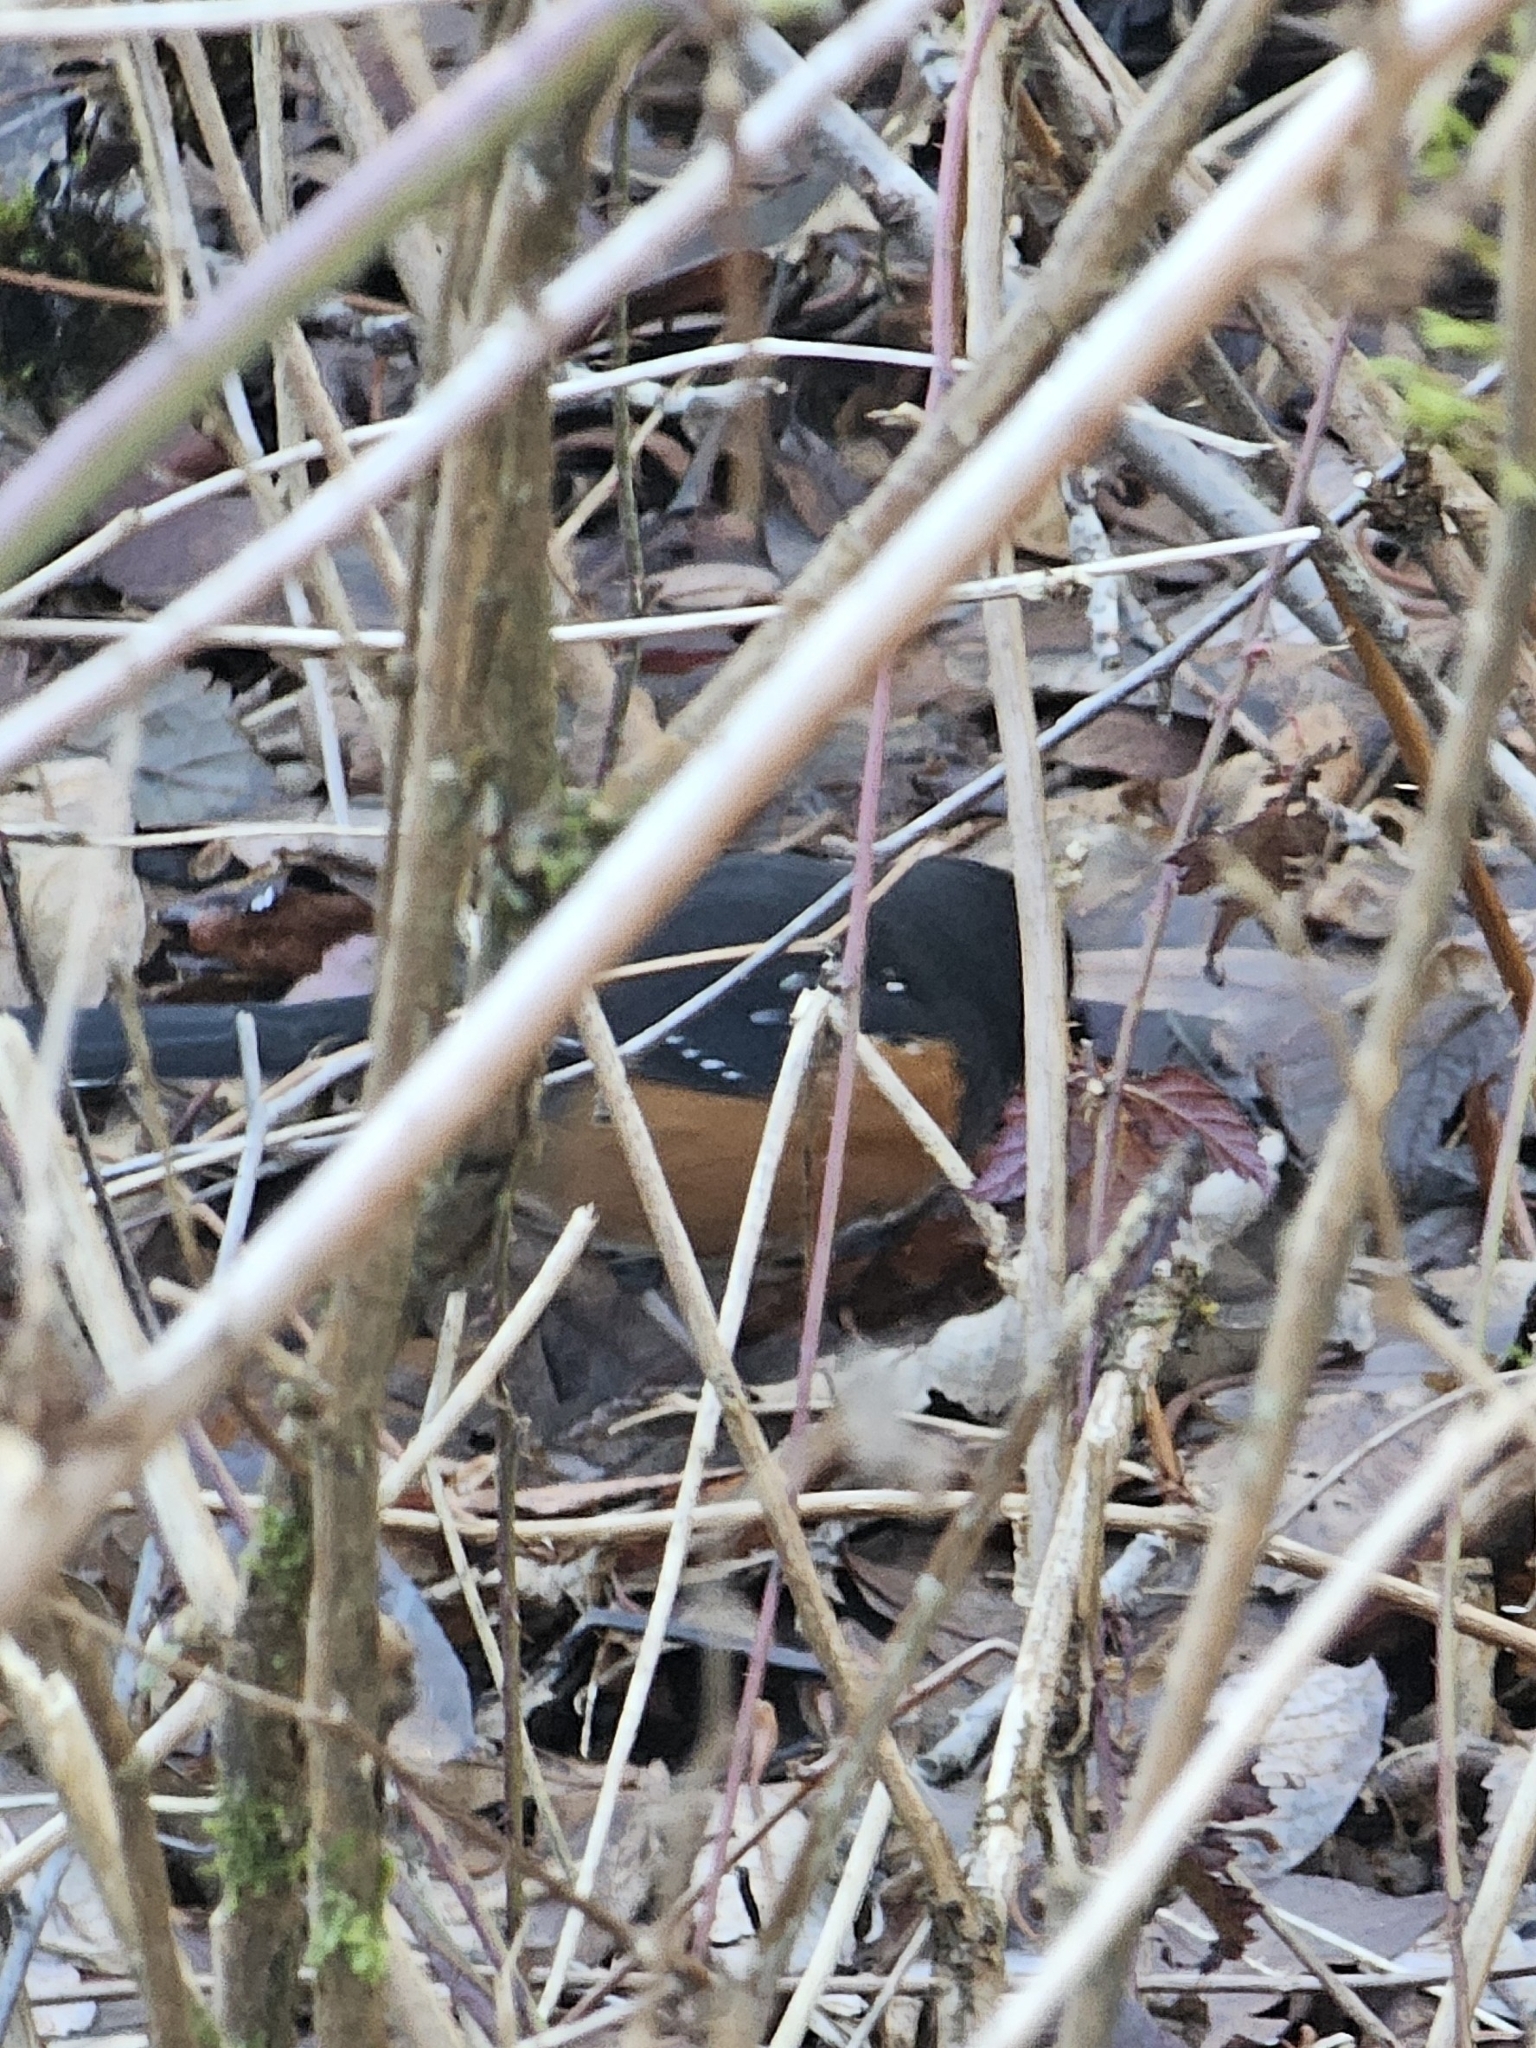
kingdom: Animalia
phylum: Chordata
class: Aves
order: Passeriformes
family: Passerellidae
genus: Pipilo
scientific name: Pipilo maculatus
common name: Spotted towhee
